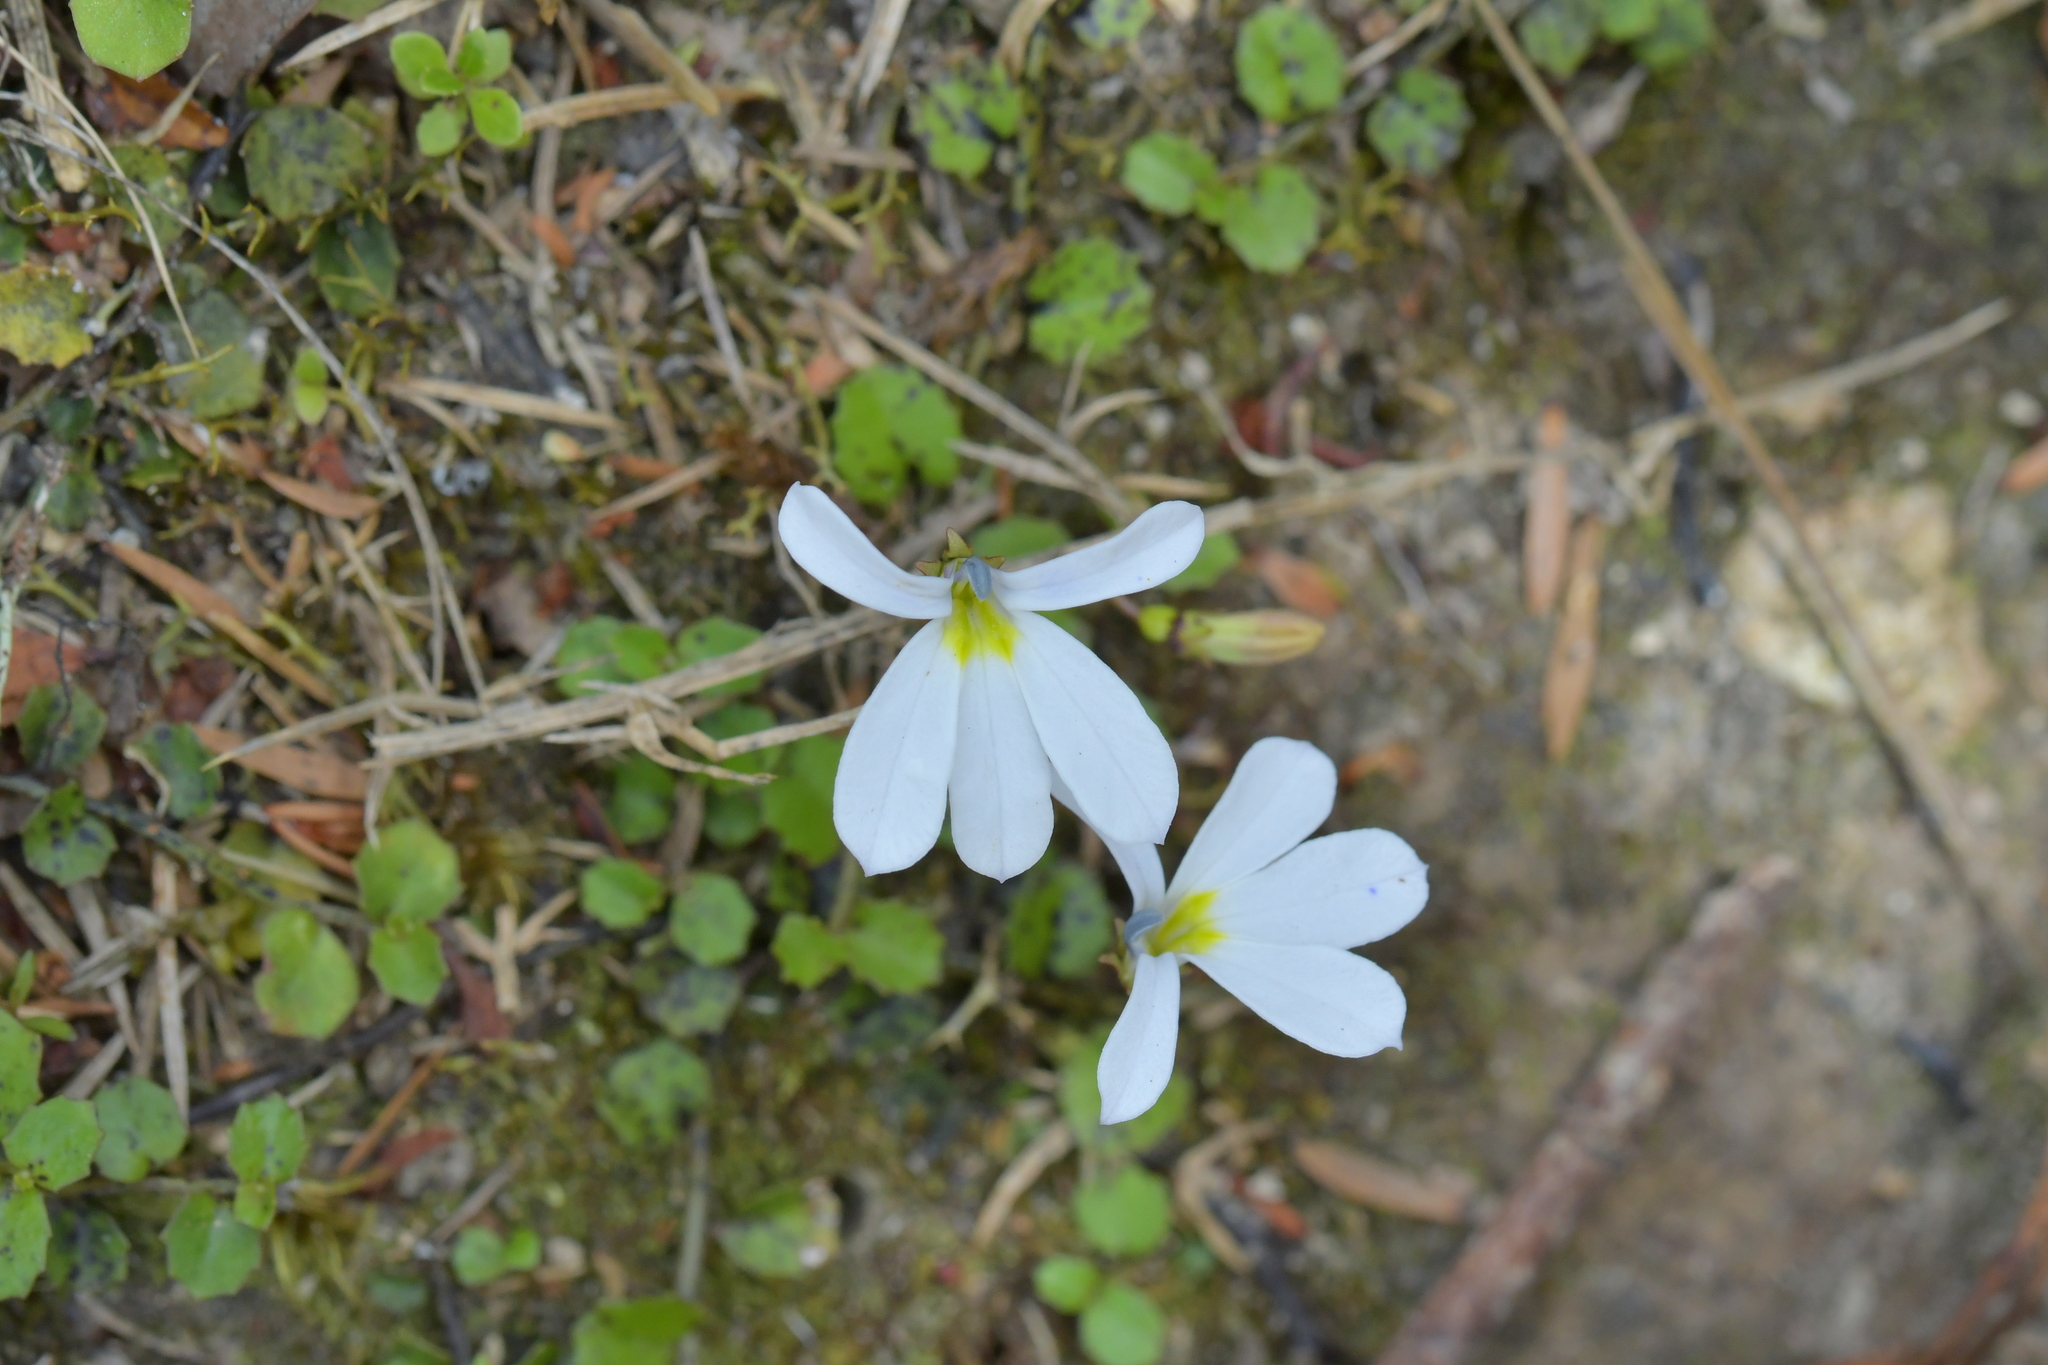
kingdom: Plantae
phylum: Tracheophyta
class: Magnoliopsida
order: Asterales
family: Campanulaceae
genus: Lobelia
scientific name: Lobelia angulata
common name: Lawn lobelia
